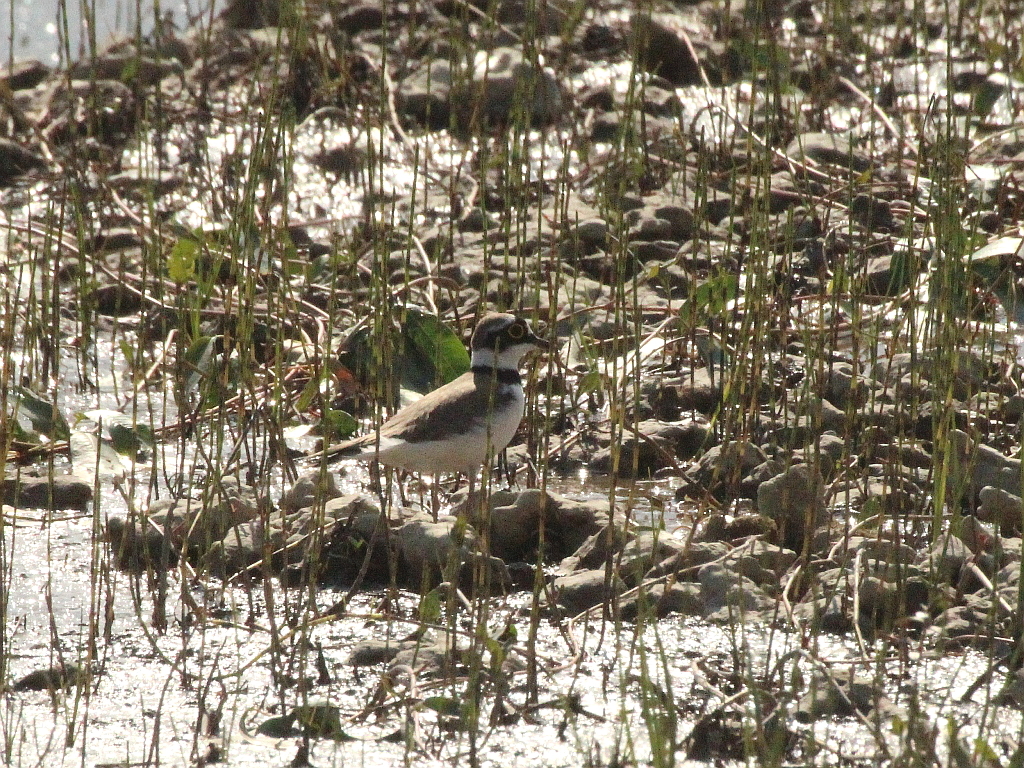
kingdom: Animalia
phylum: Chordata
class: Aves
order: Charadriiformes
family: Charadriidae
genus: Charadrius
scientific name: Charadrius dubius
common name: Little ringed plover
